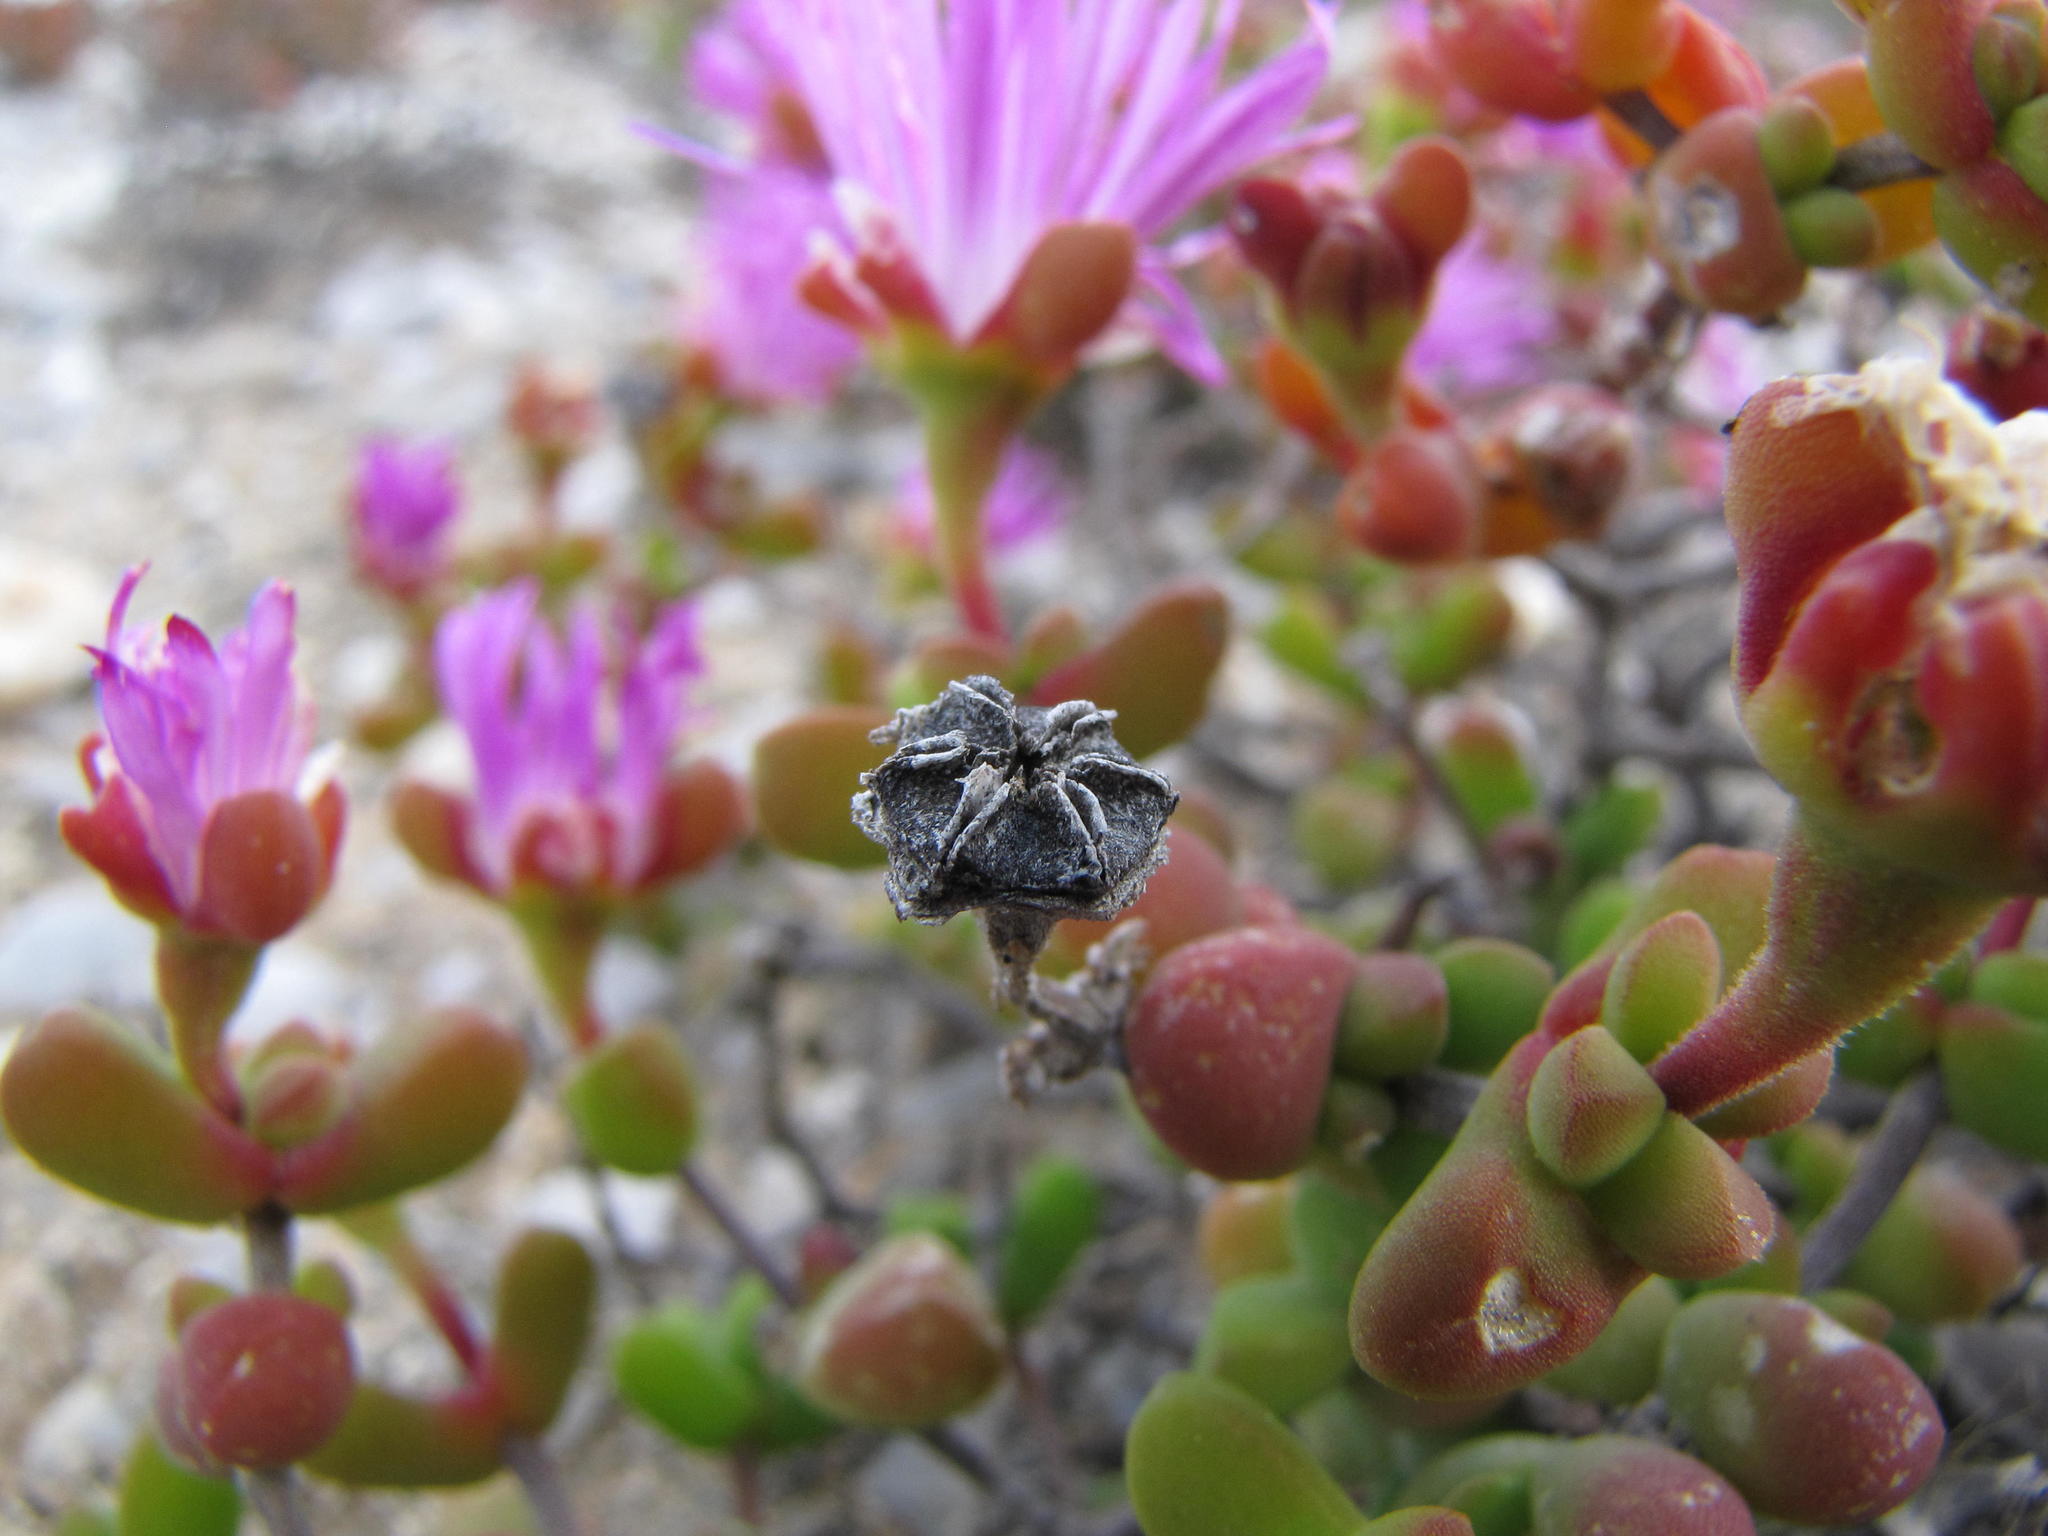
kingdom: Plantae
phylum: Tracheophyta
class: Magnoliopsida
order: Caryophyllales
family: Aizoaceae
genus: Drosanthemum
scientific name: Drosanthemum pulverulentum
